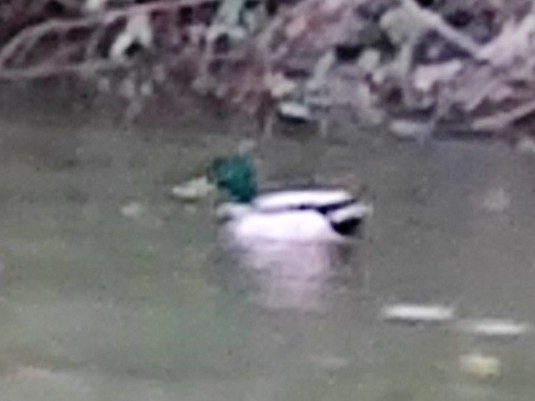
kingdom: Animalia
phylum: Chordata
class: Aves
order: Anseriformes
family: Anatidae
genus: Anas
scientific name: Anas platyrhynchos
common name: Mallard
